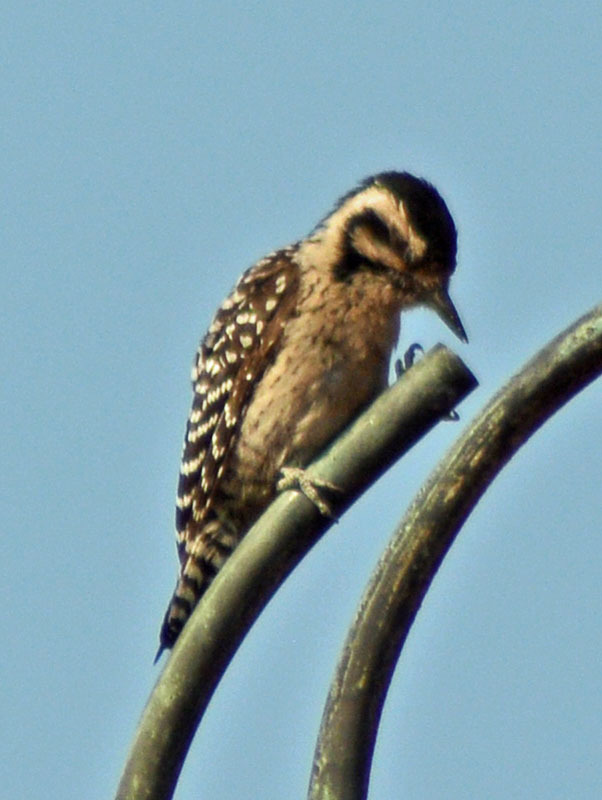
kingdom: Animalia
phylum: Chordata
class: Aves
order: Piciformes
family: Picidae
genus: Dryobates
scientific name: Dryobates scalaris
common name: Ladder-backed woodpecker
